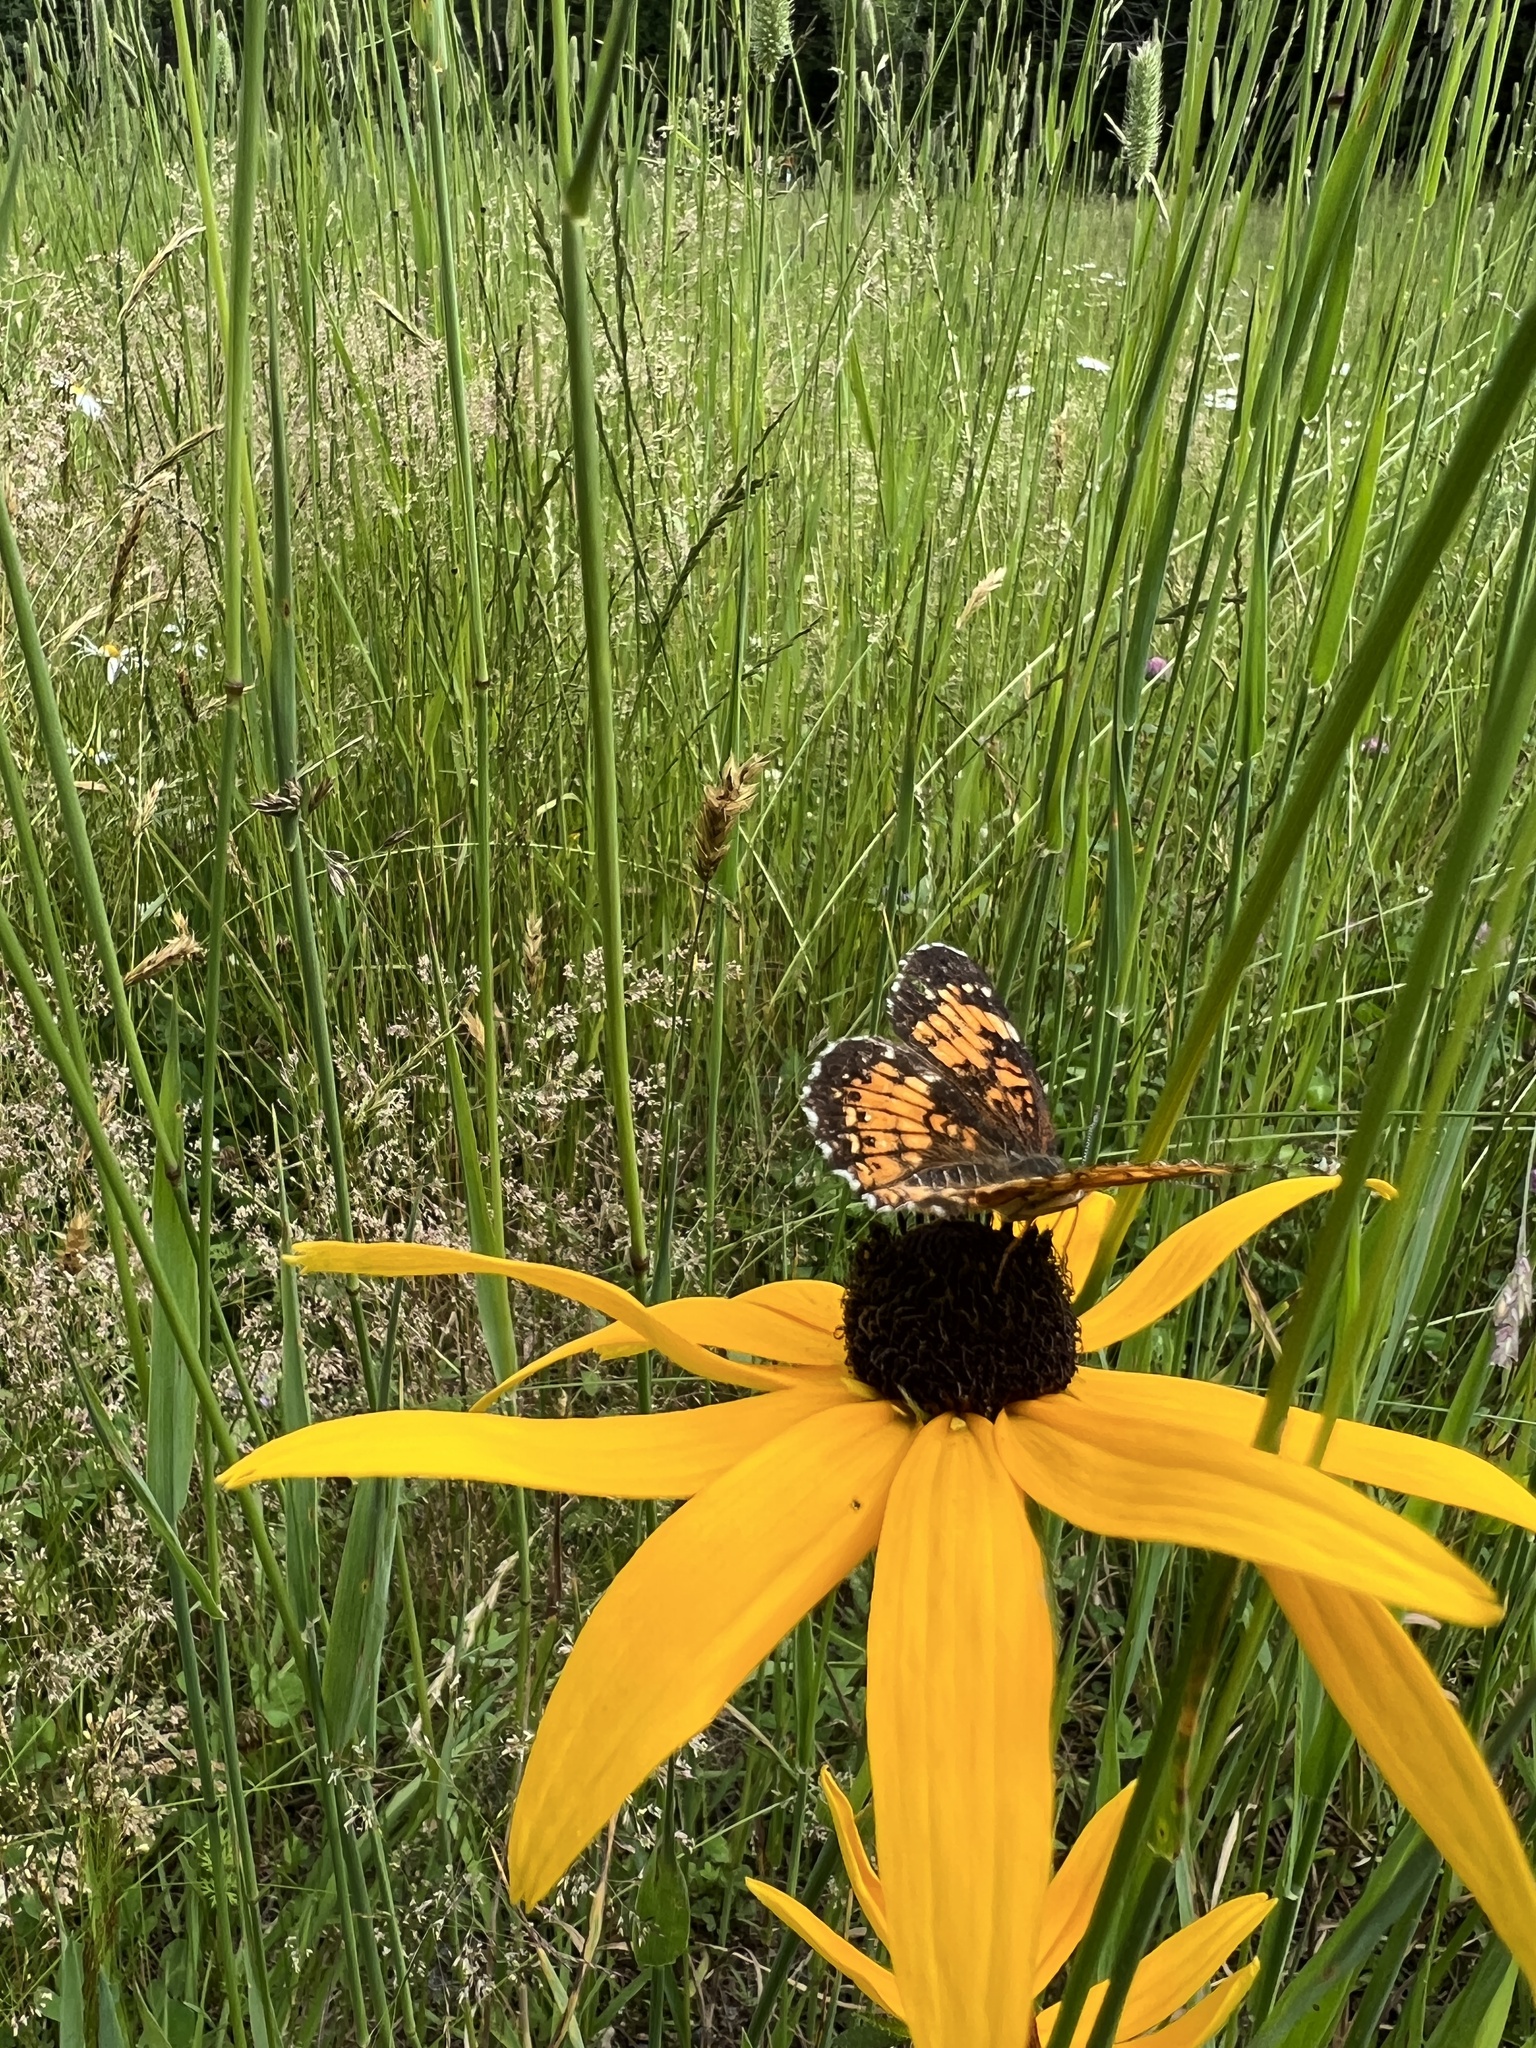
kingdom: Animalia
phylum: Arthropoda
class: Insecta
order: Lepidoptera
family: Nymphalidae
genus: Chlosyne
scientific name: Chlosyne harrisii
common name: Harris's checkerspot
